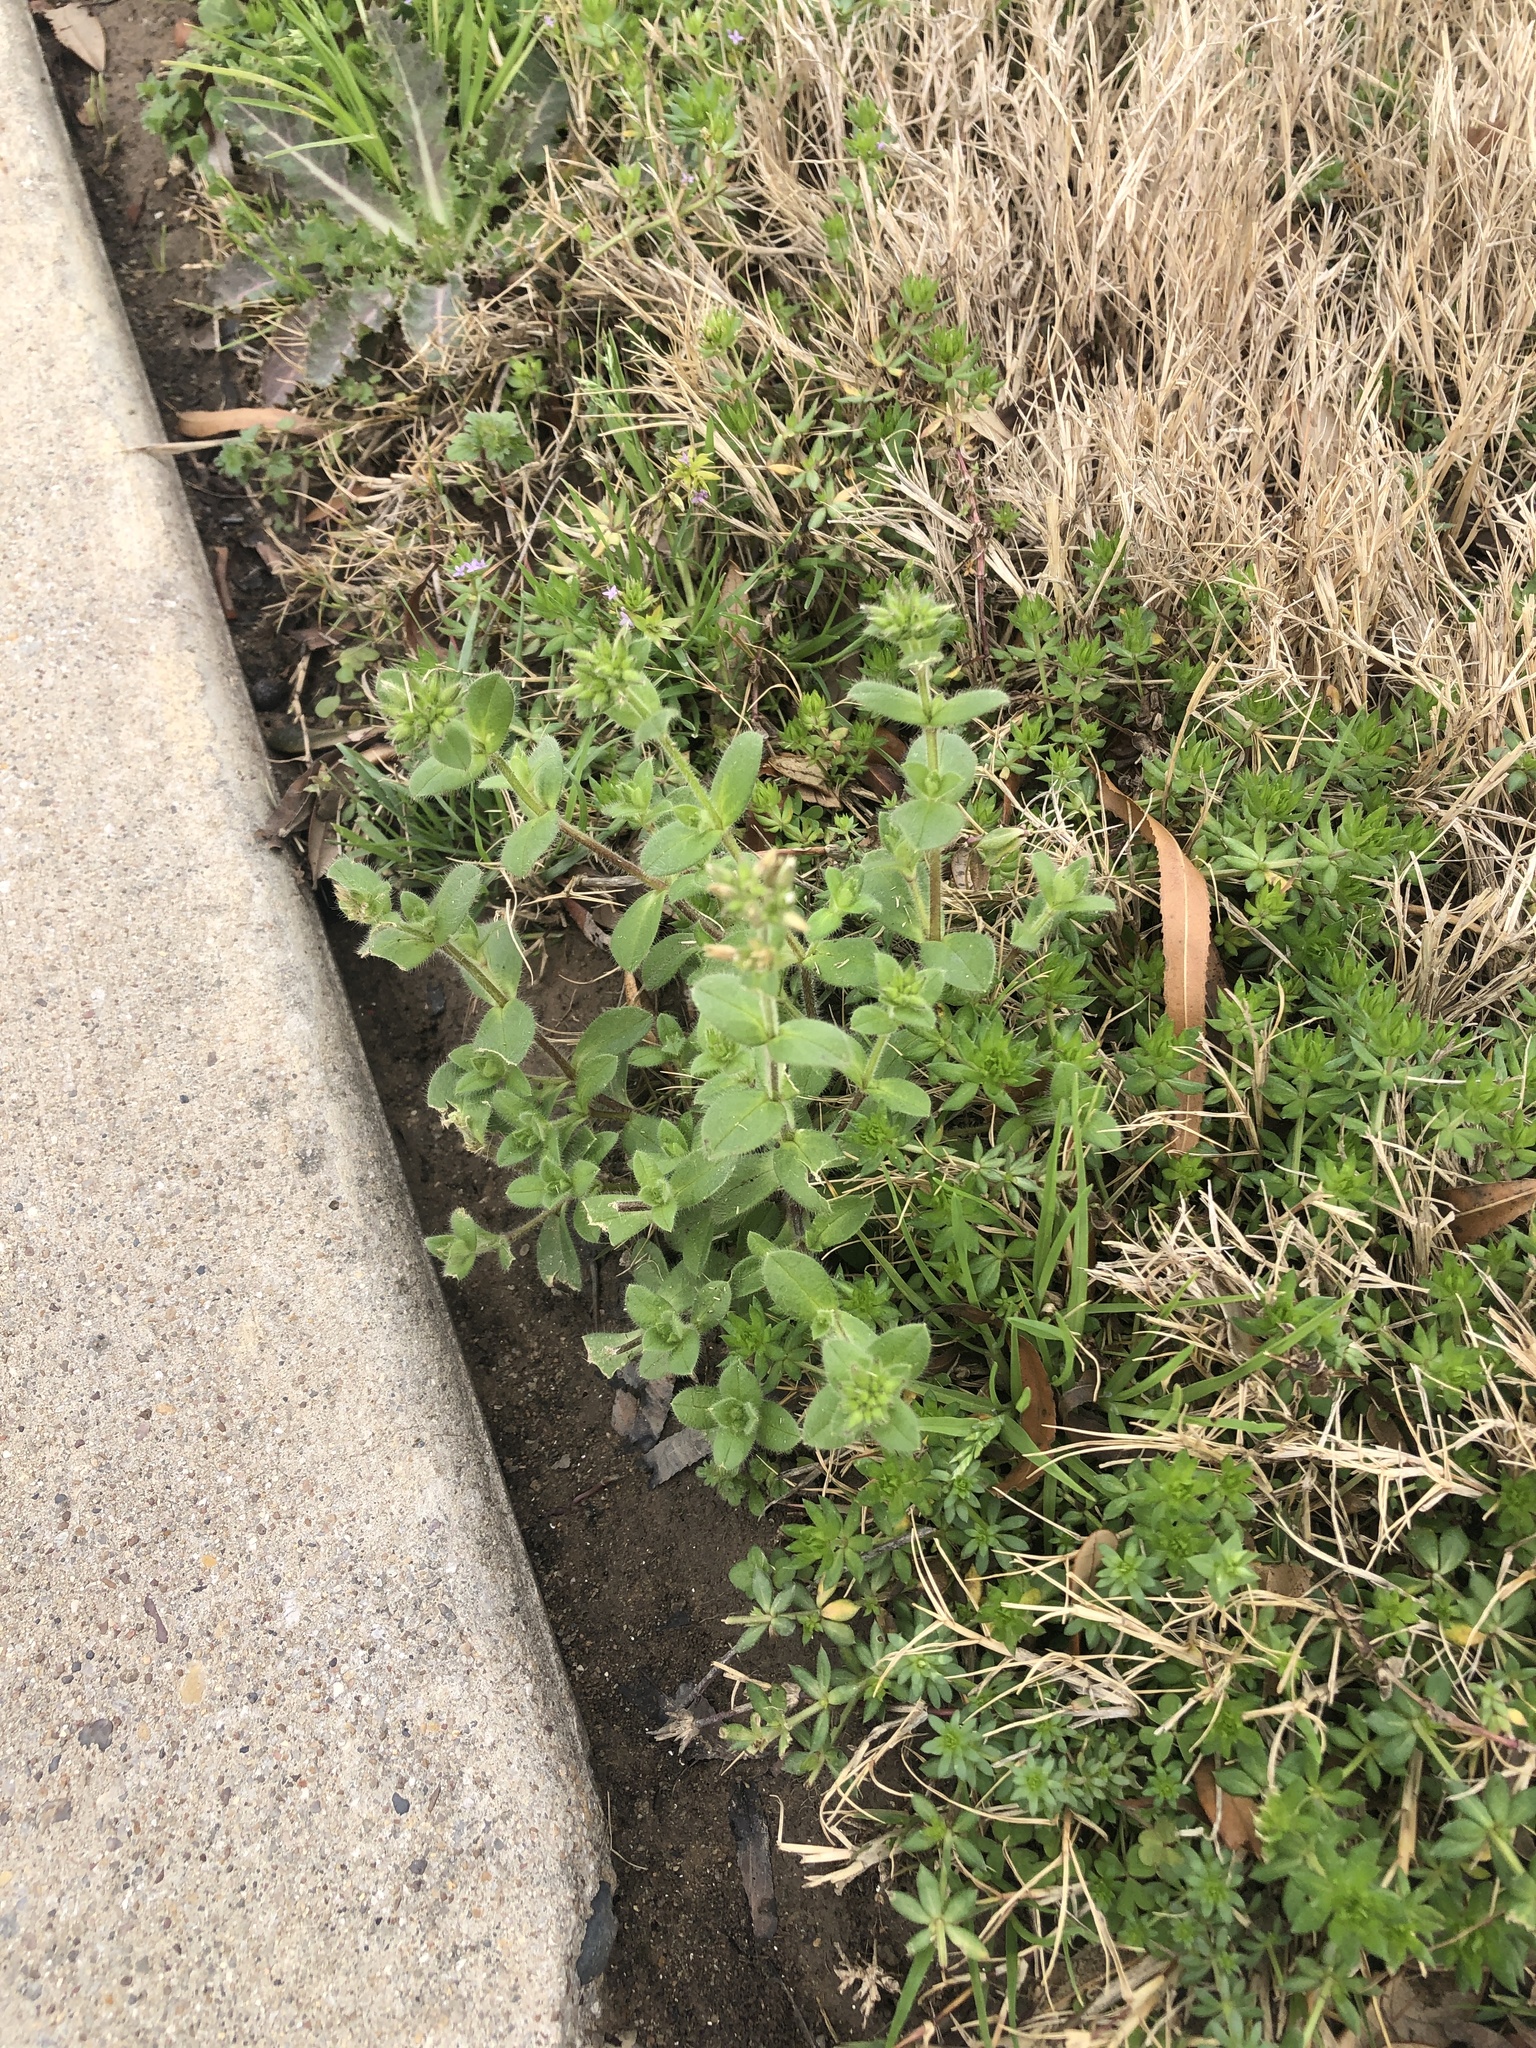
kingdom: Plantae
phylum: Tracheophyta
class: Magnoliopsida
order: Caryophyllales
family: Caryophyllaceae
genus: Cerastium
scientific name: Cerastium glomeratum
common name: Sticky chickweed
